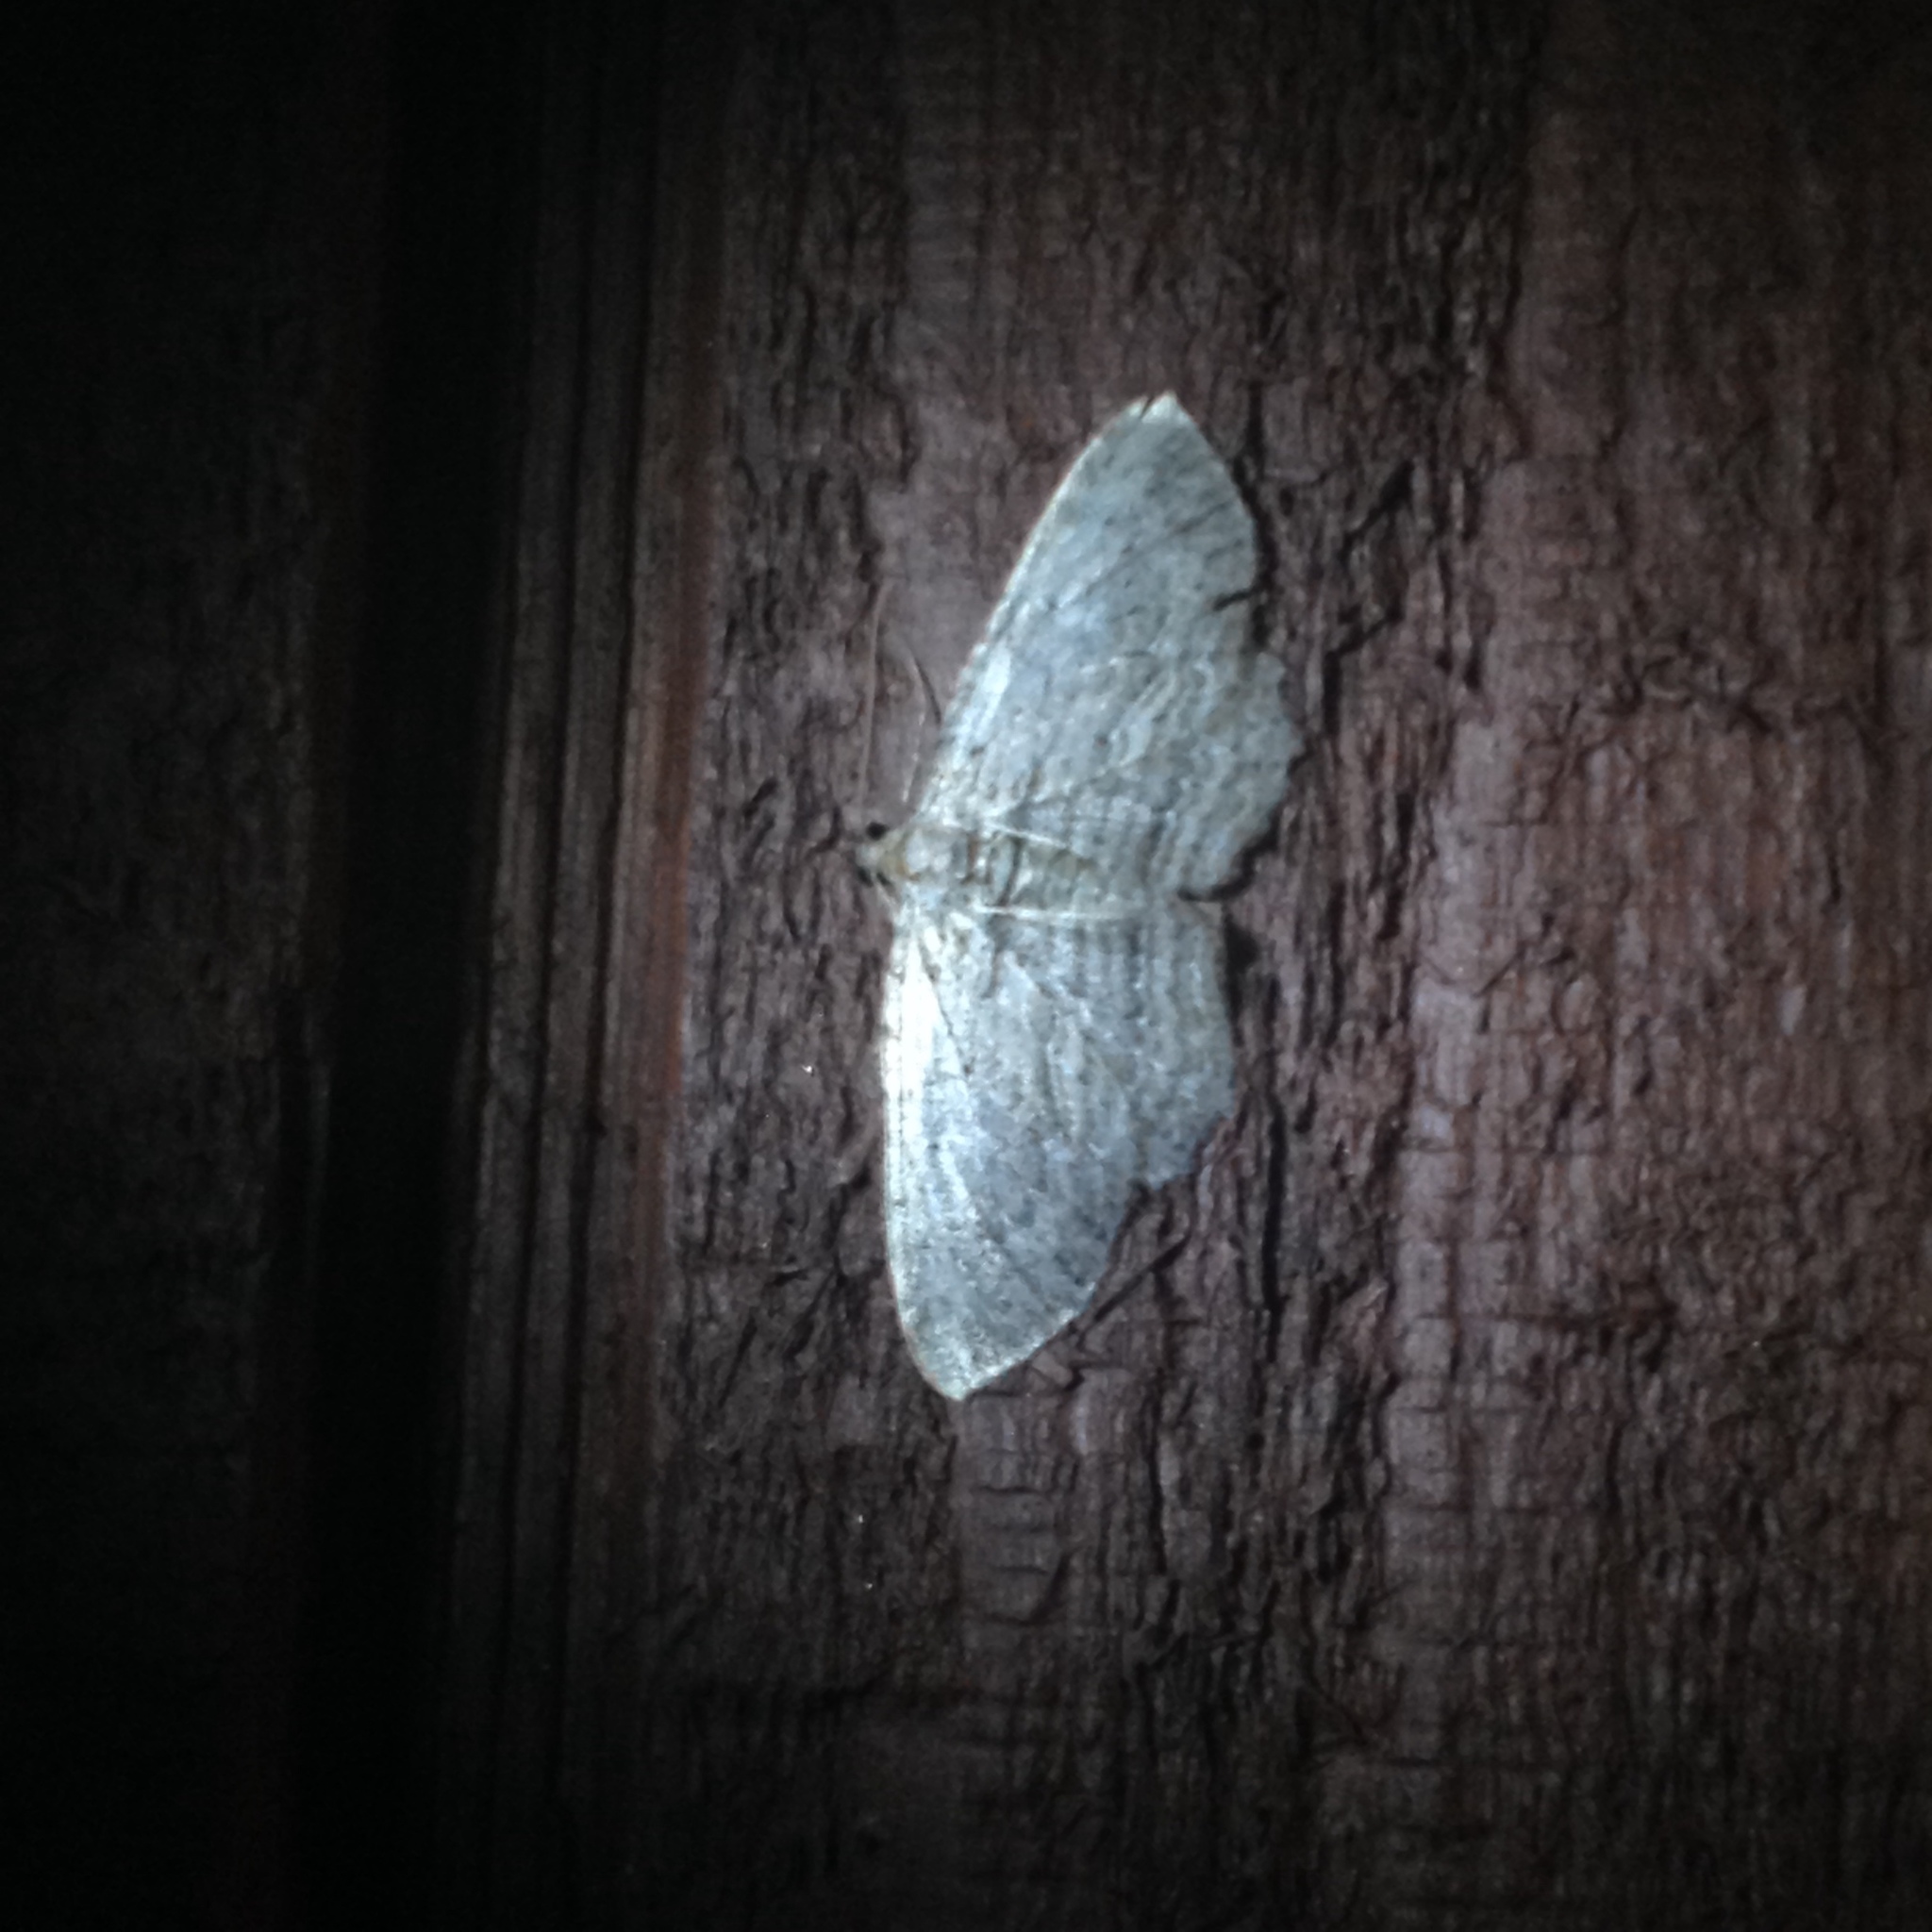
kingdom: Animalia
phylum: Arthropoda
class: Insecta
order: Lepidoptera
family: Geometridae
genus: Horisme
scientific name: Horisme intestinata
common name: Brown bark carpet
